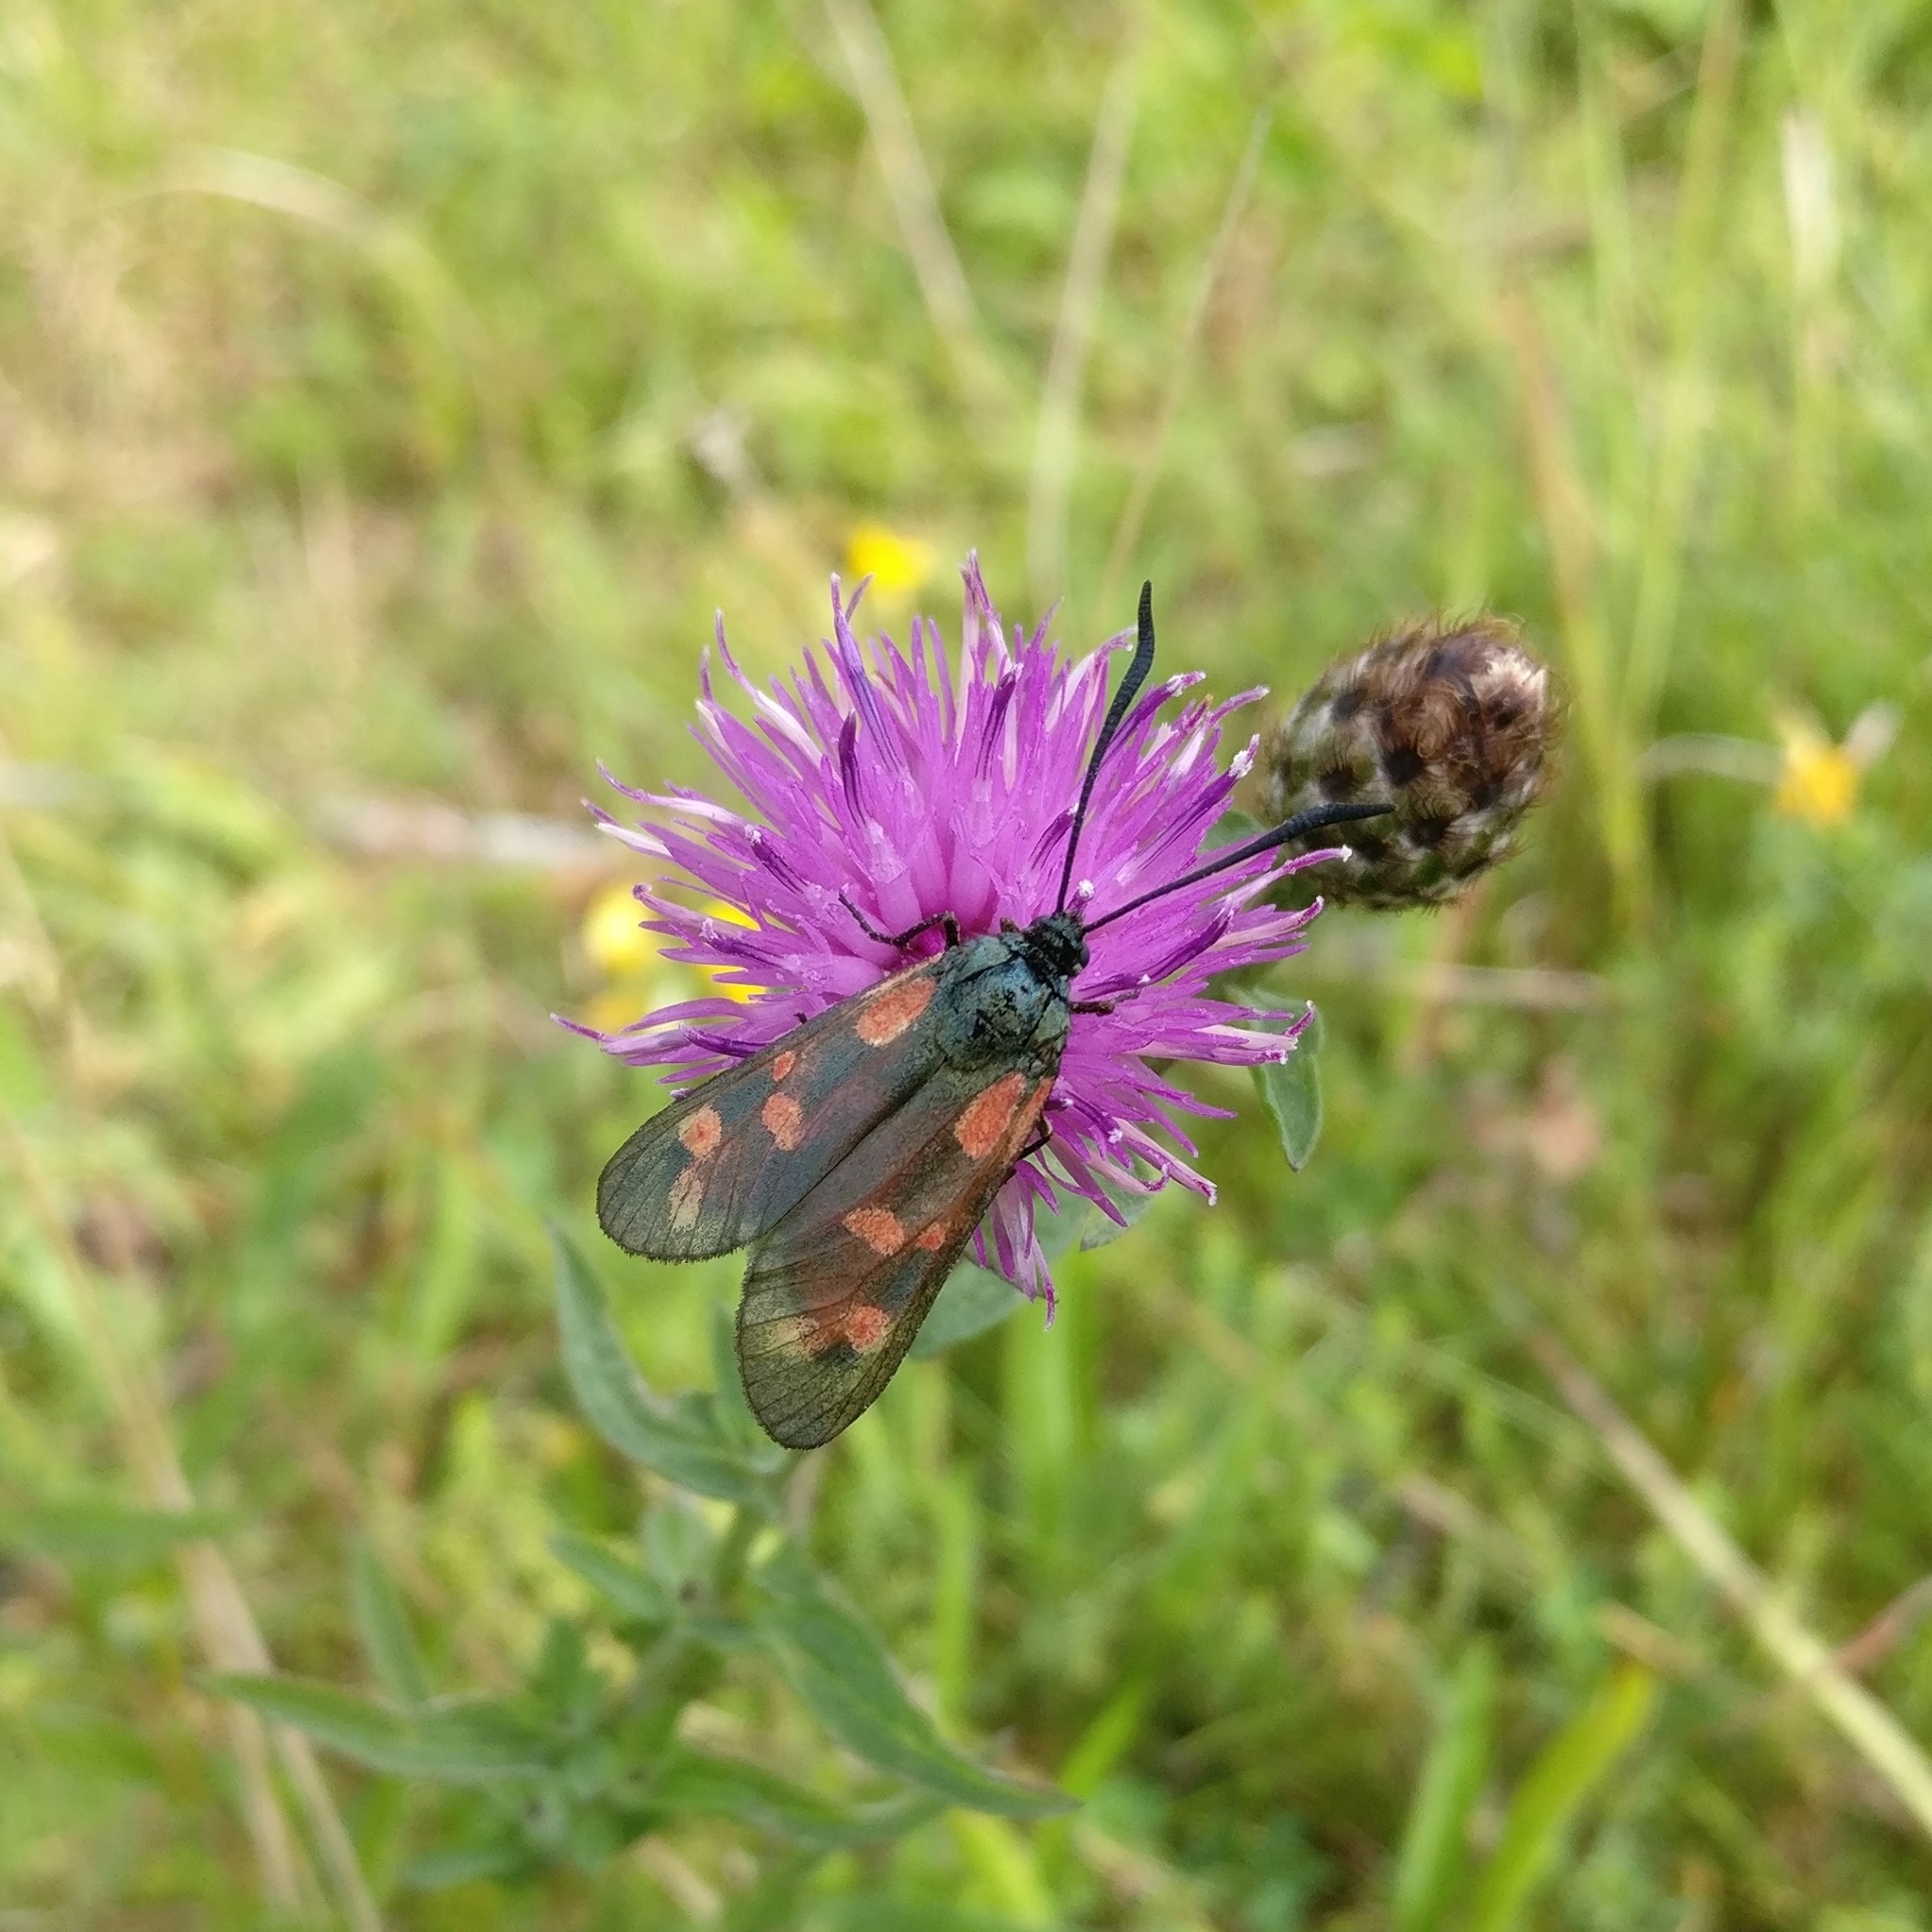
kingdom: Animalia
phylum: Arthropoda
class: Insecta
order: Lepidoptera
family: Zygaenidae
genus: Zygaena
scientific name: Zygaena filipendulae
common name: Six-spot burnet
